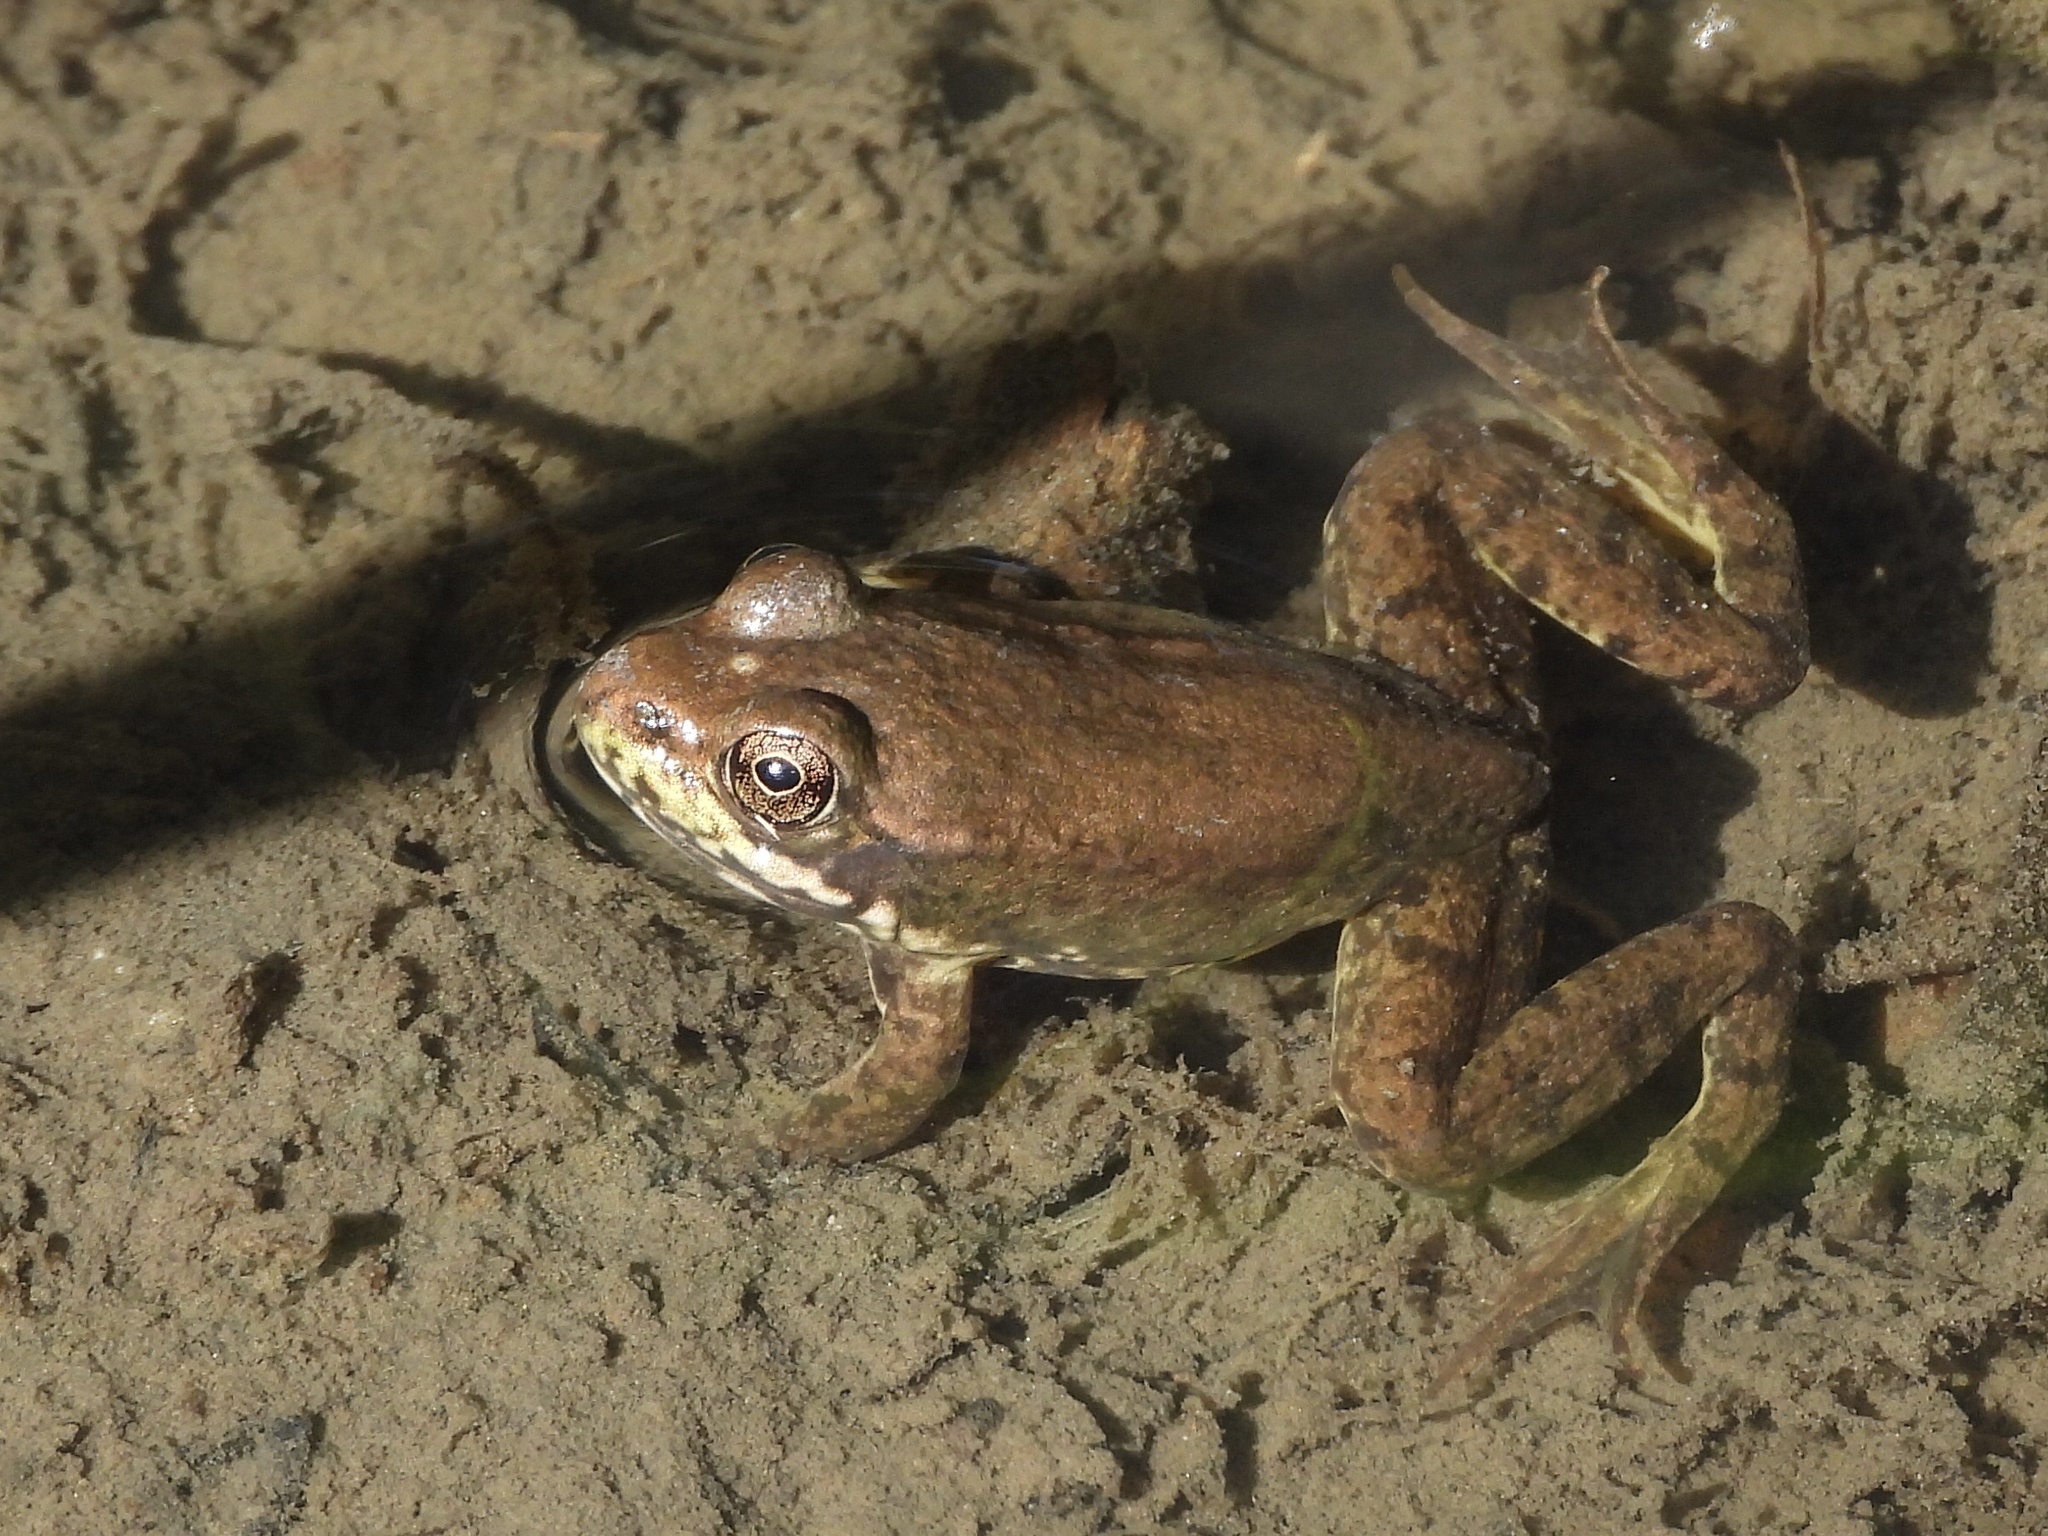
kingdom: Animalia
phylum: Chordata
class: Amphibia
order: Anura
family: Ranidae
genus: Lithobates
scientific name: Lithobates catesbeianus
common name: American bullfrog
